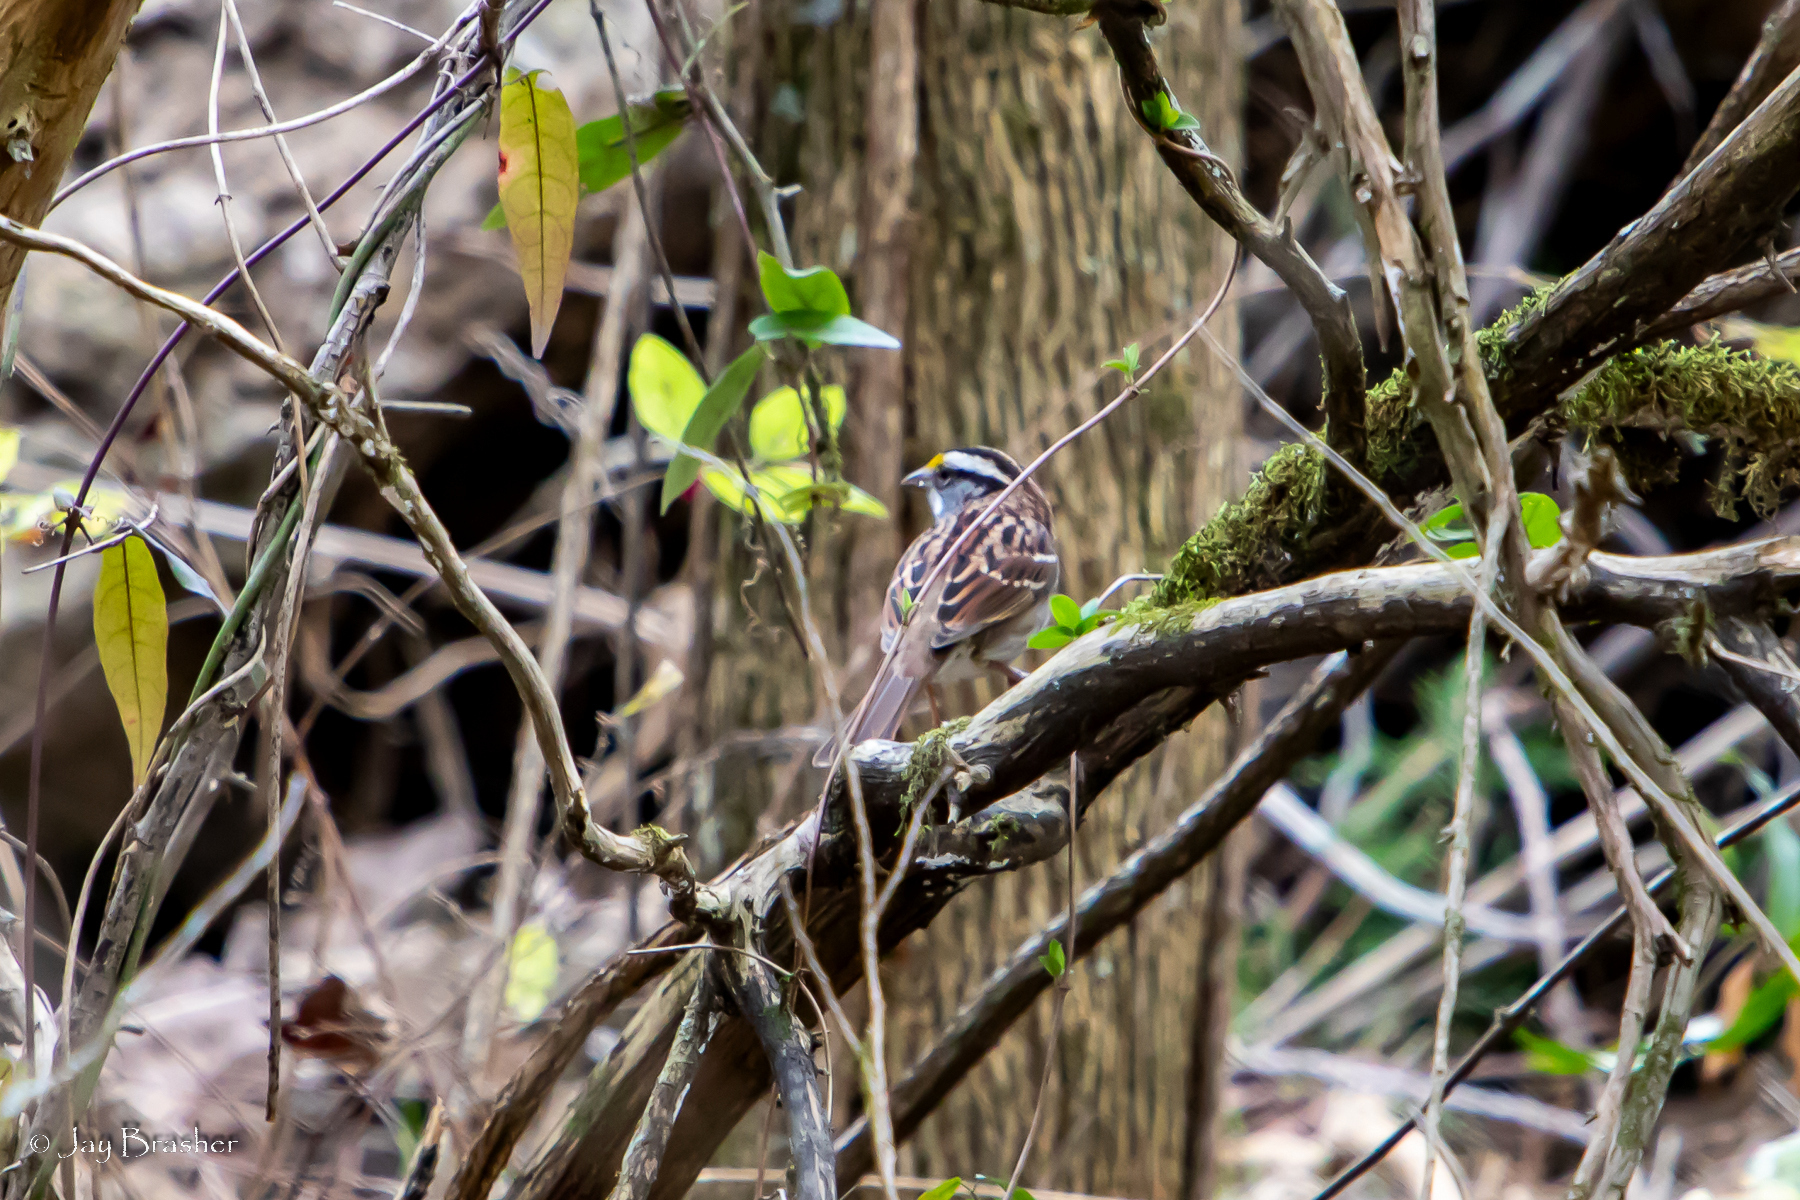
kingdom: Animalia
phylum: Chordata
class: Aves
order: Passeriformes
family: Passerellidae
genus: Zonotrichia
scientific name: Zonotrichia albicollis
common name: White-throated sparrow
